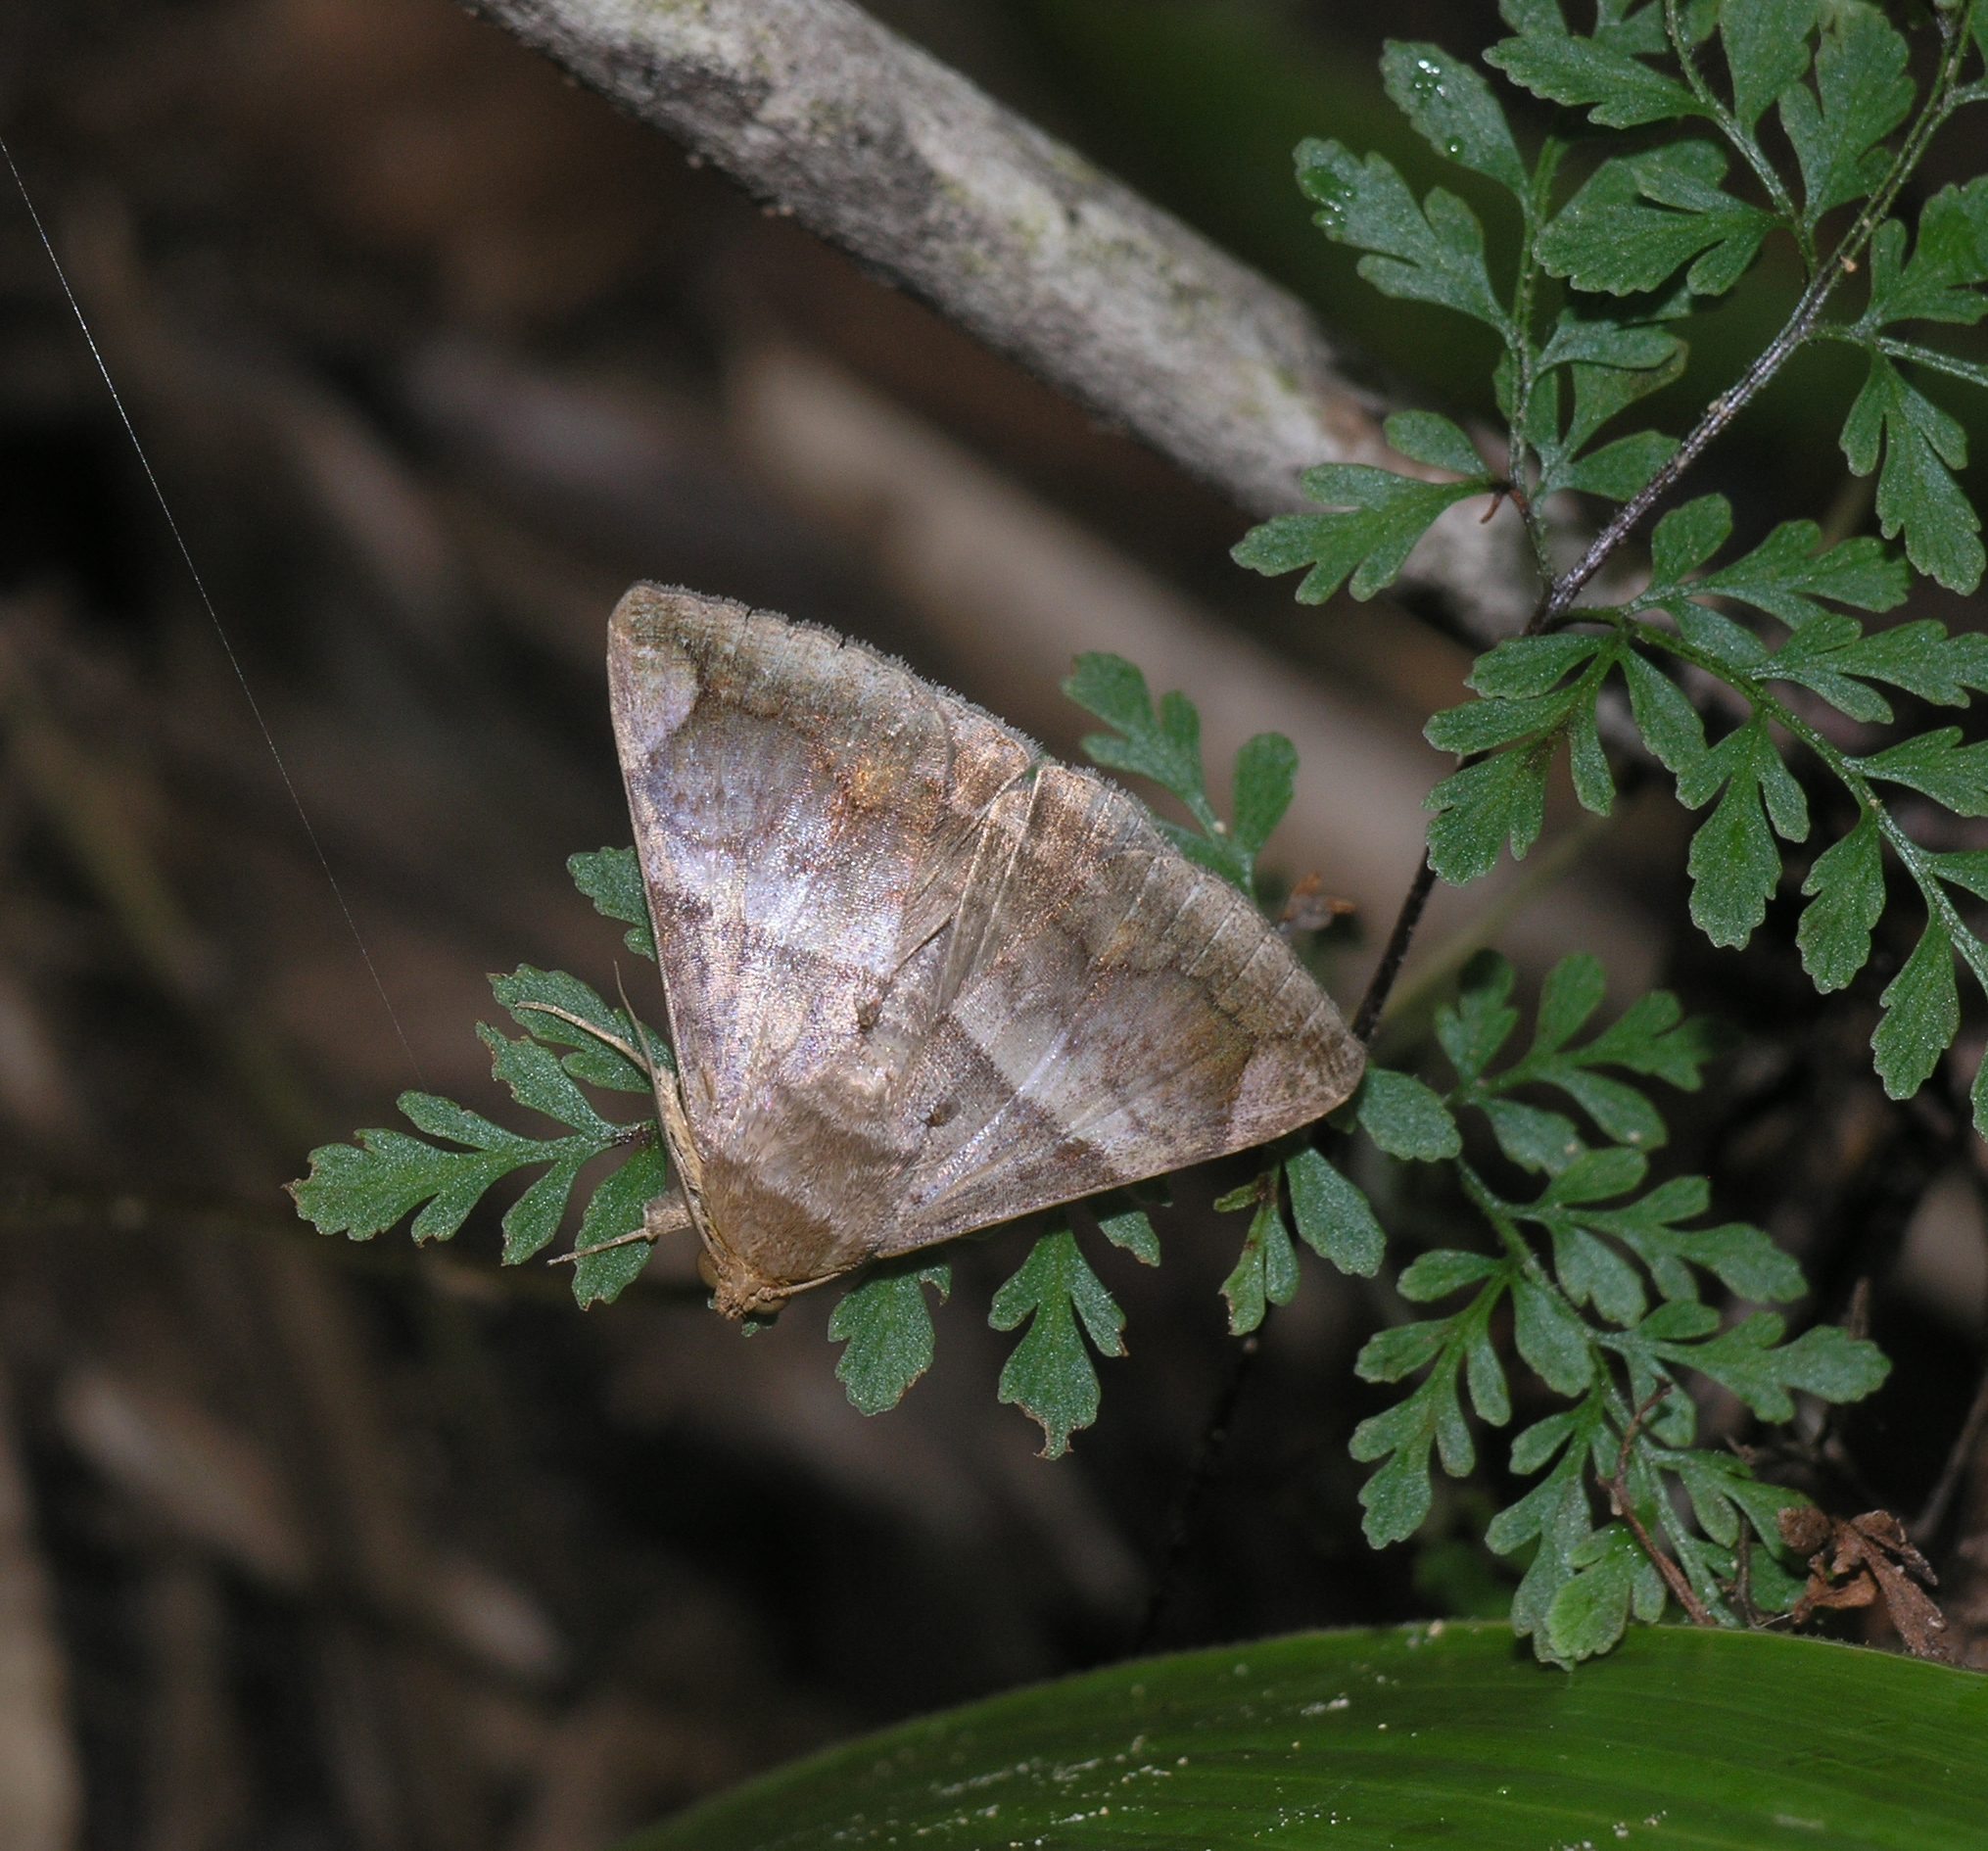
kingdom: Animalia
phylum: Arthropoda
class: Insecta
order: Lepidoptera
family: Erebidae
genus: Buzara
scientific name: Buzara onelia
